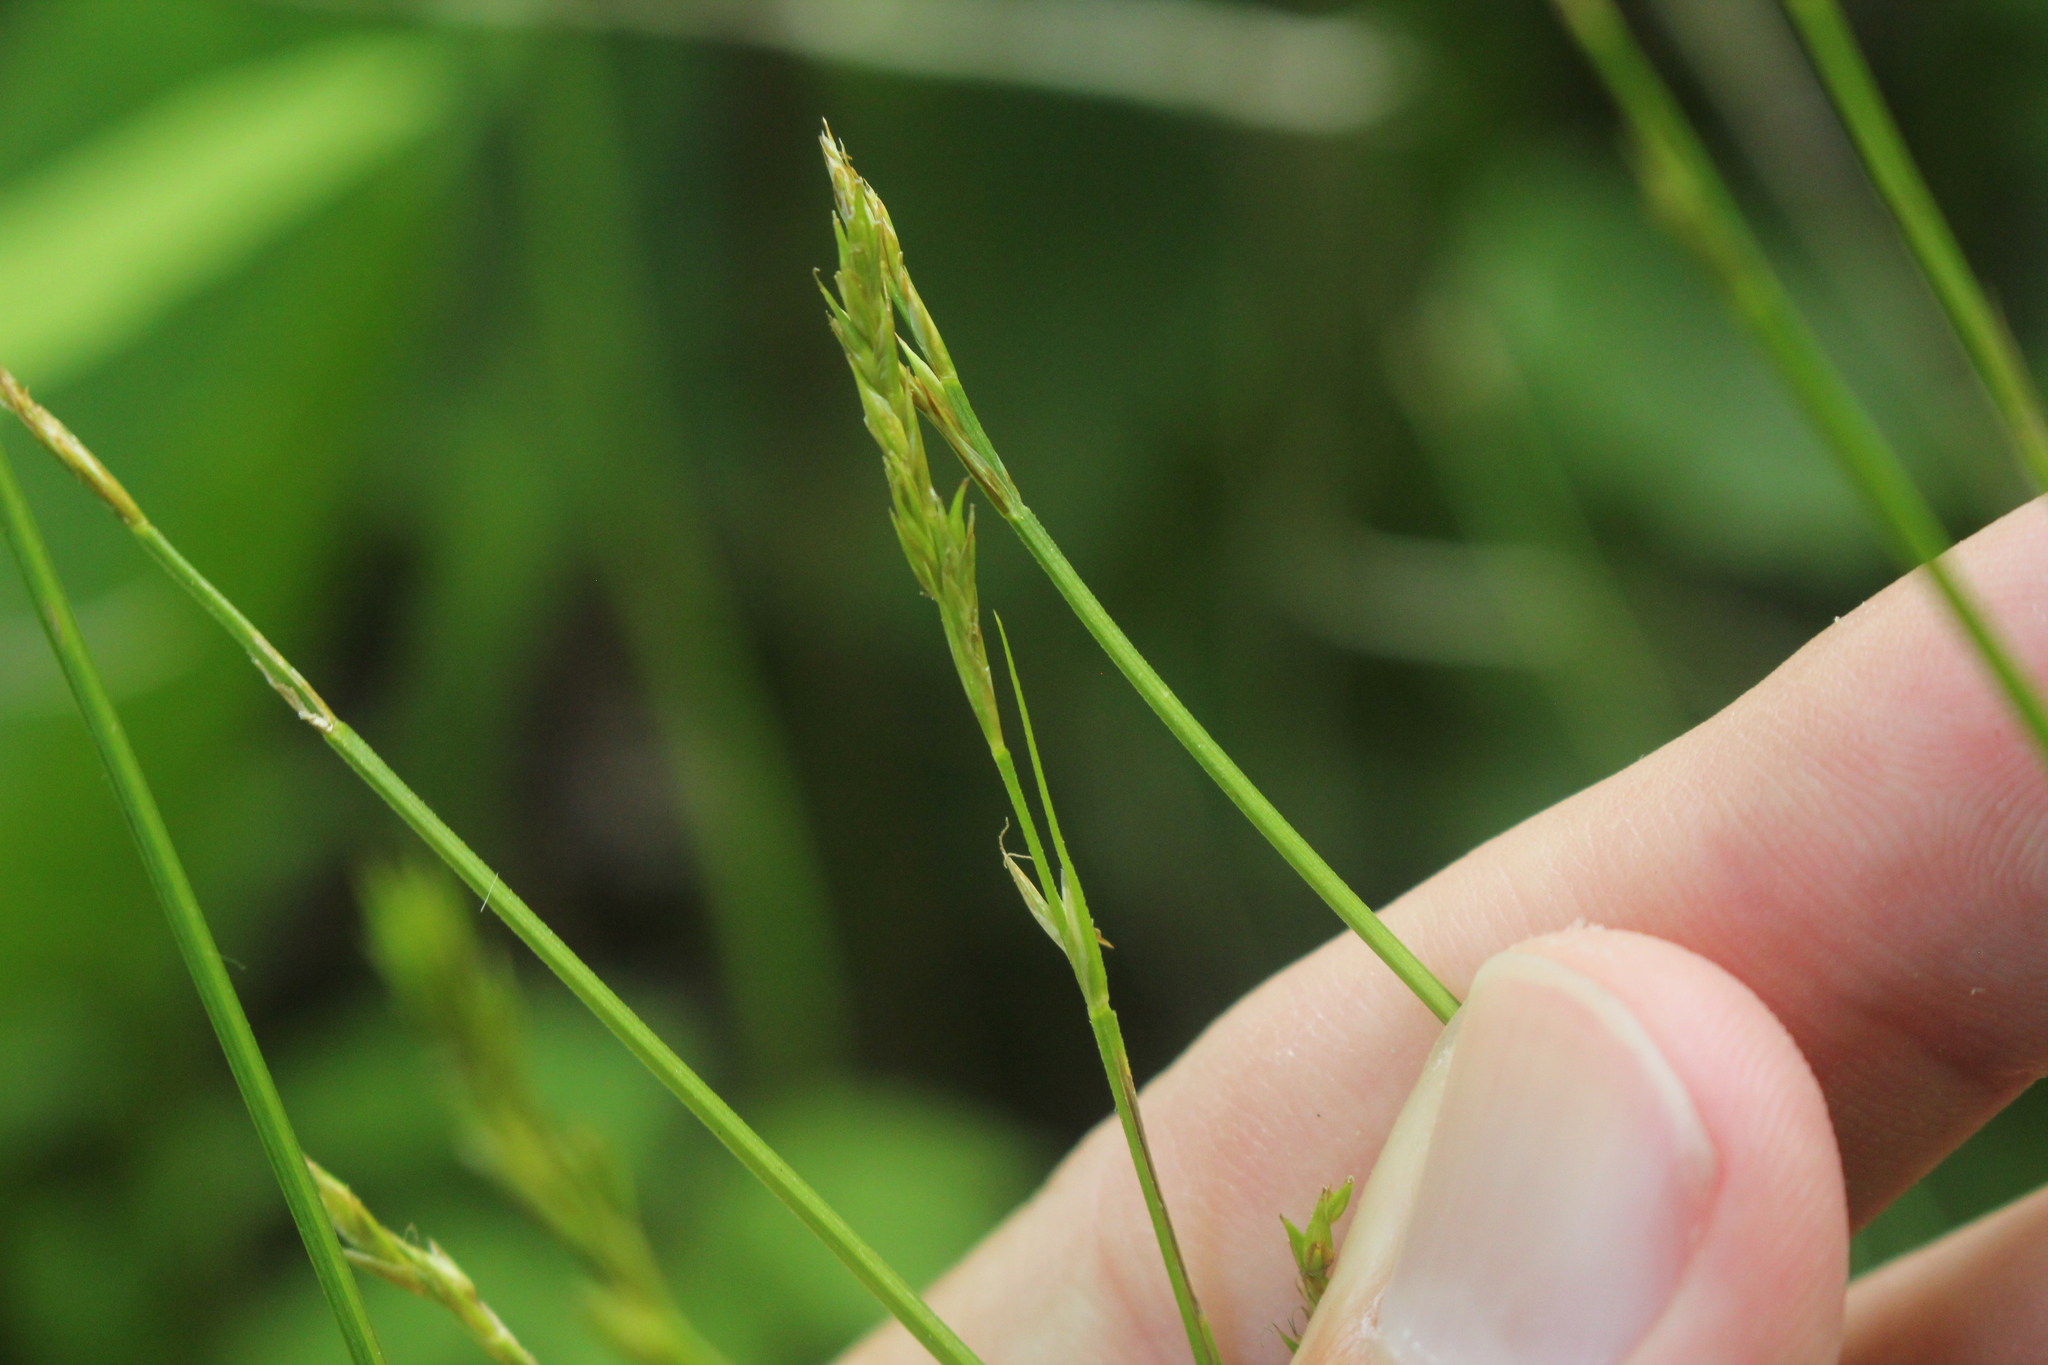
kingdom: Plantae
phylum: Tracheophyta
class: Liliopsida
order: Poales
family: Cyperaceae
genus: Carex
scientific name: Carex bromoides
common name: Brome hummock sedge
